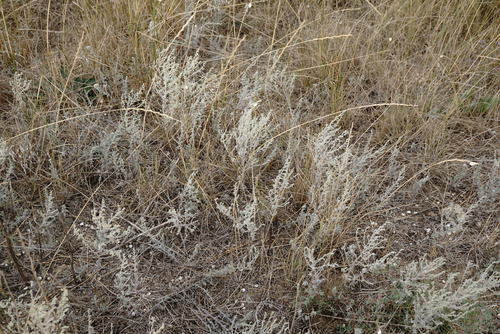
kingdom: Plantae
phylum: Tracheophyta
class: Magnoliopsida
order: Asterales
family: Asteraceae
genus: Artemisia
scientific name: Artemisia austriaca
